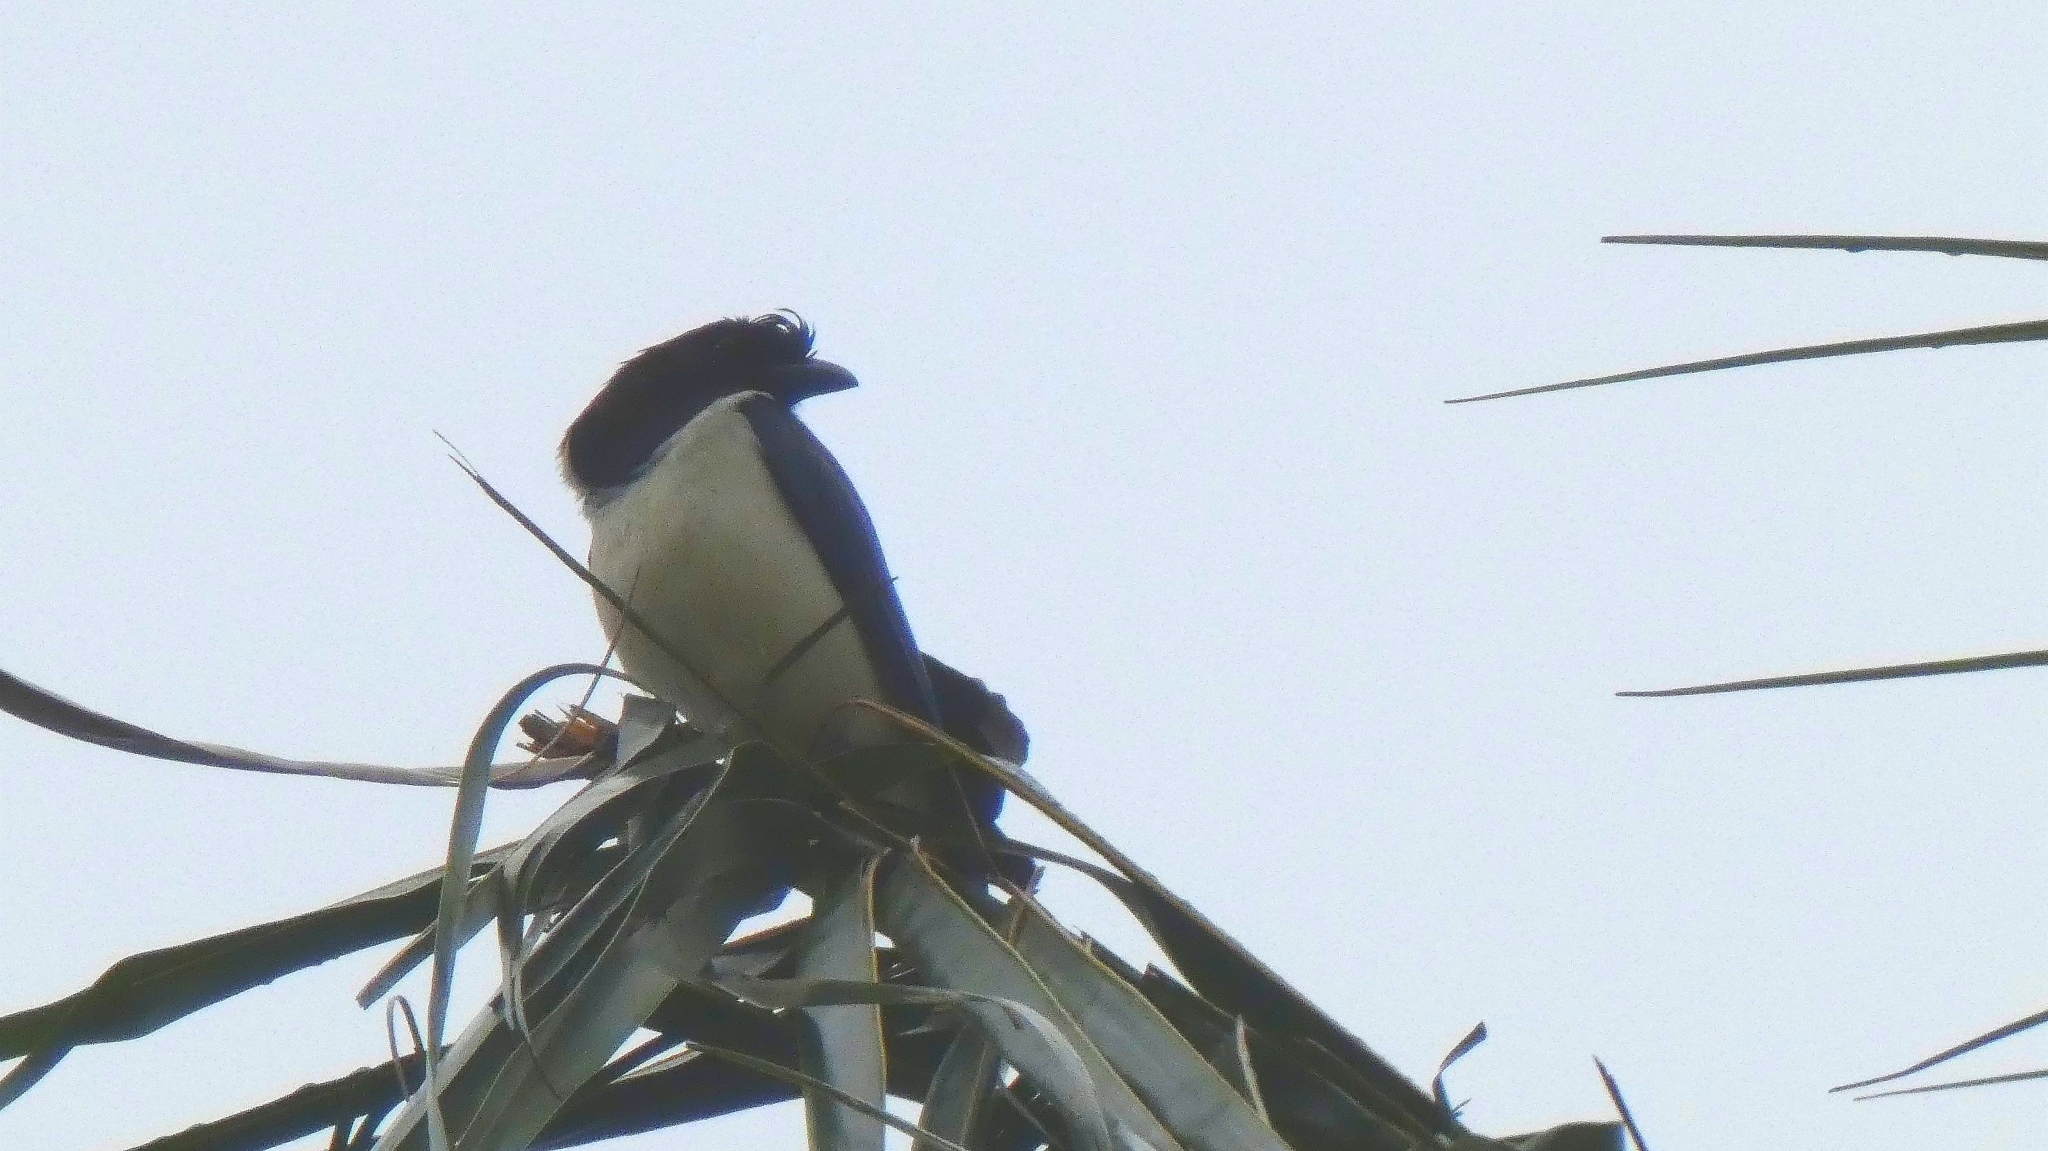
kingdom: Animalia
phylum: Chordata
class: Aves
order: Passeriformes
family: Corvidae
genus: Cyanocorax
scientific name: Cyanocorax cristatellus
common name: Curl-crested jay
